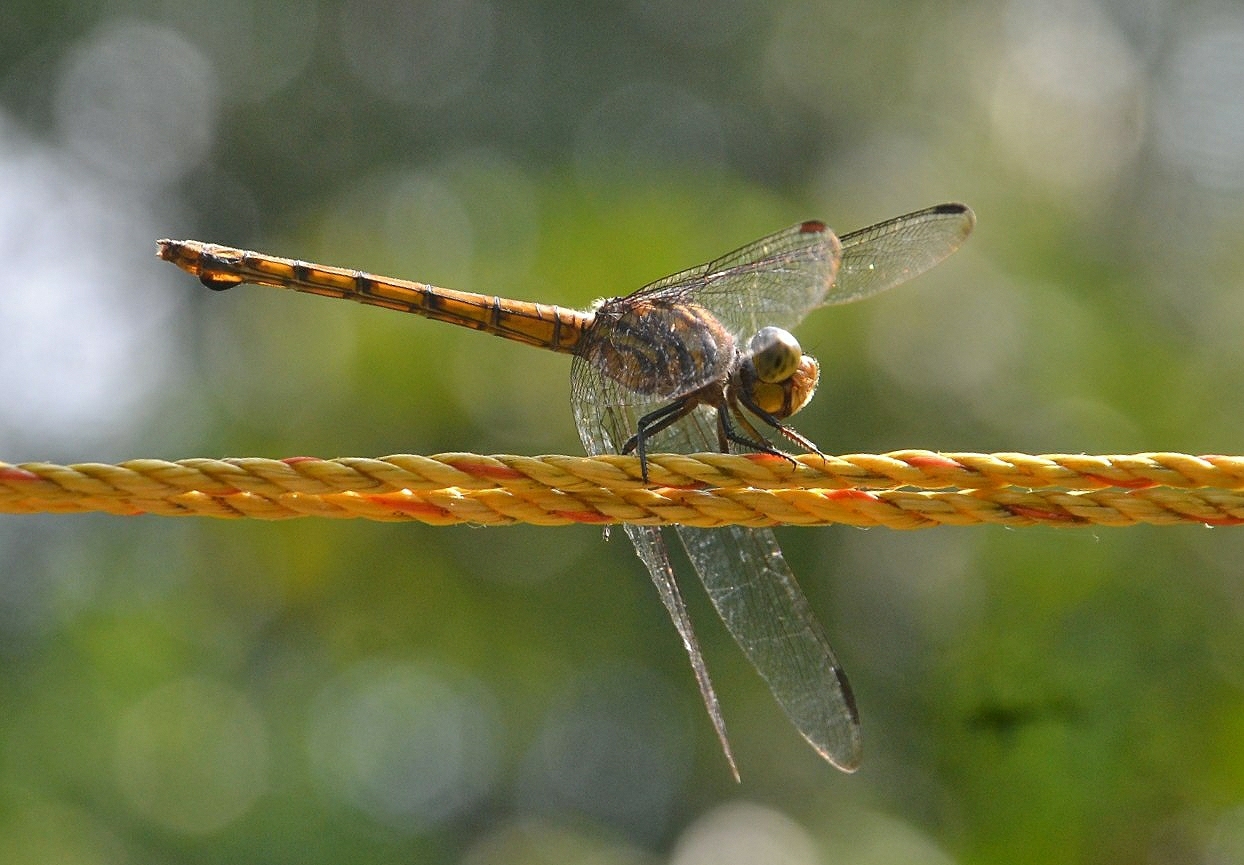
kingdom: Animalia
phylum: Arthropoda
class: Insecta
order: Odonata
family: Libellulidae
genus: Potamarcha
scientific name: Potamarcha congener
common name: Blue chaser
